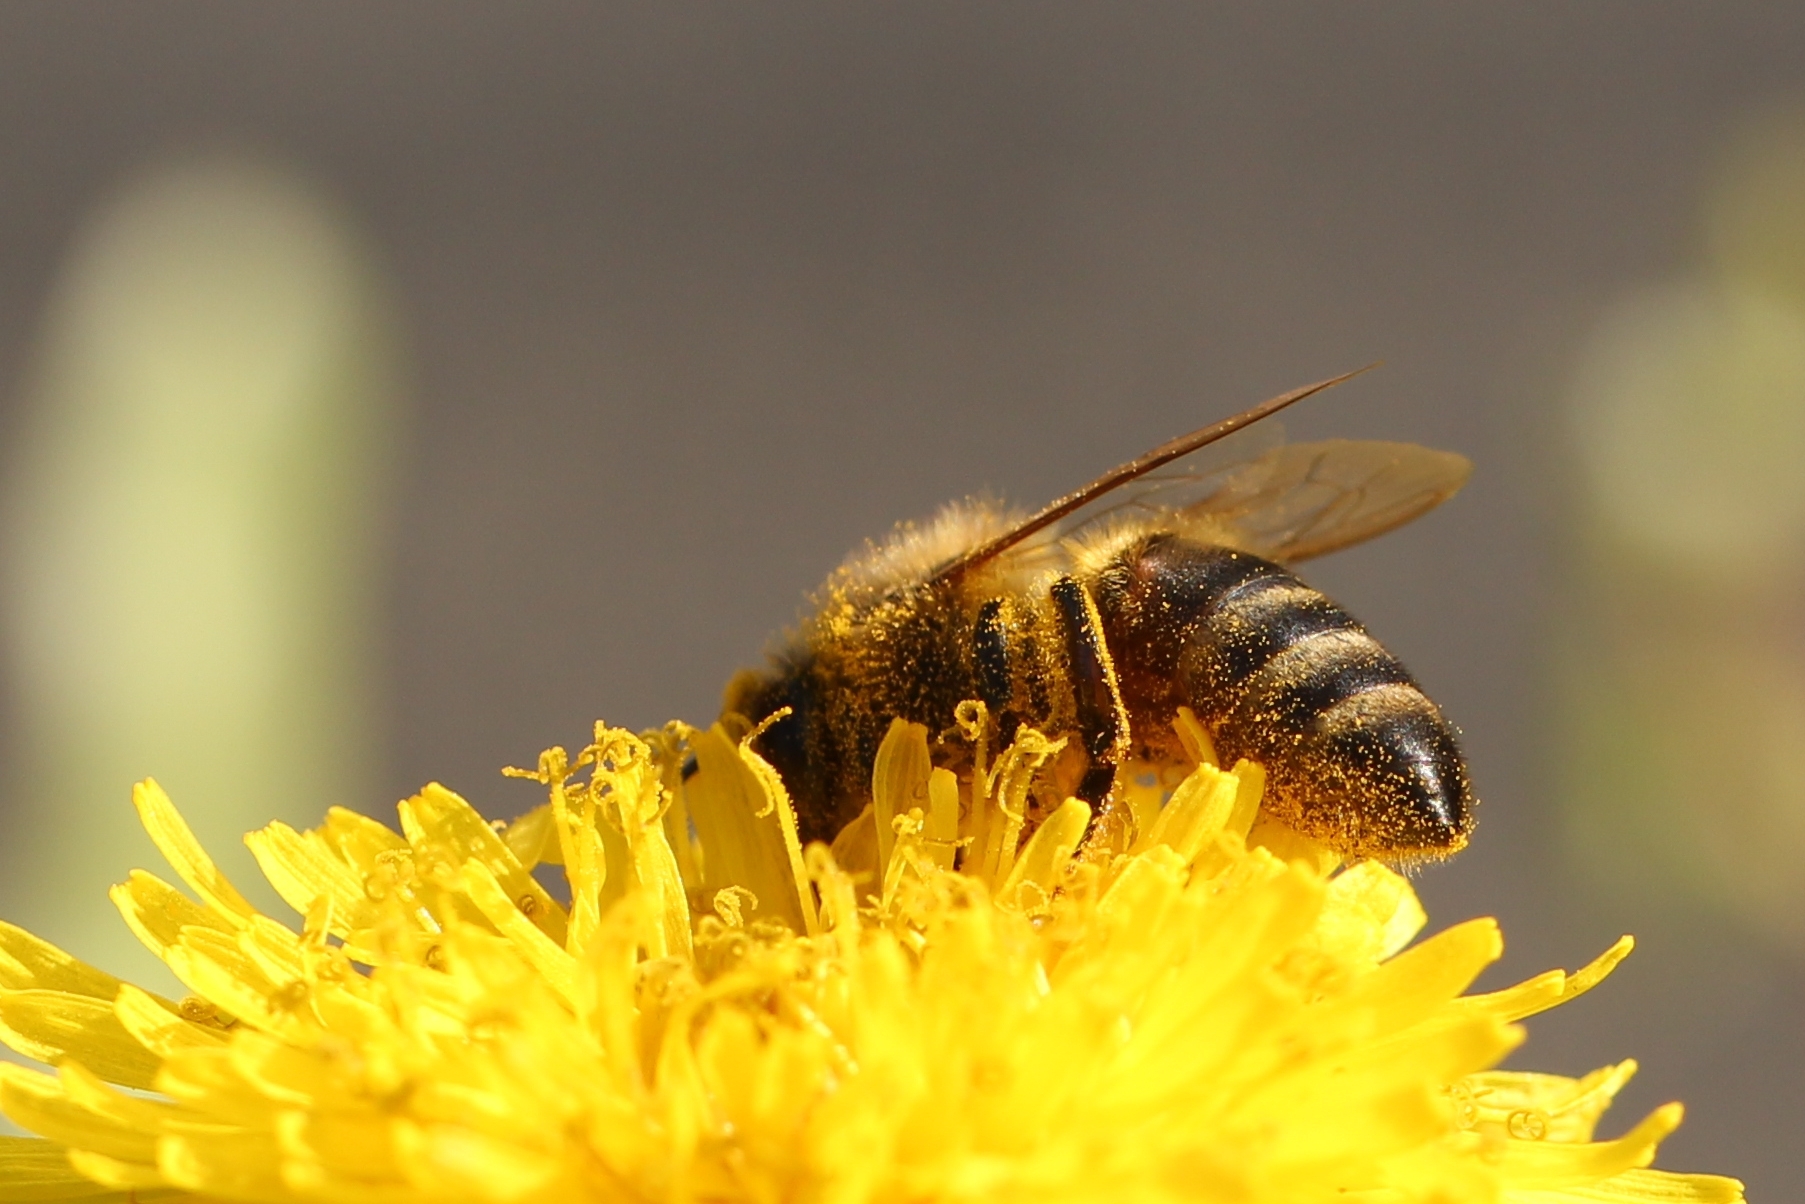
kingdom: Animalia
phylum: Arthropoda
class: Insecta
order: Hymenoptera
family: Apidae
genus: Apis
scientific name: Apis mellifera
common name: Honey bee
